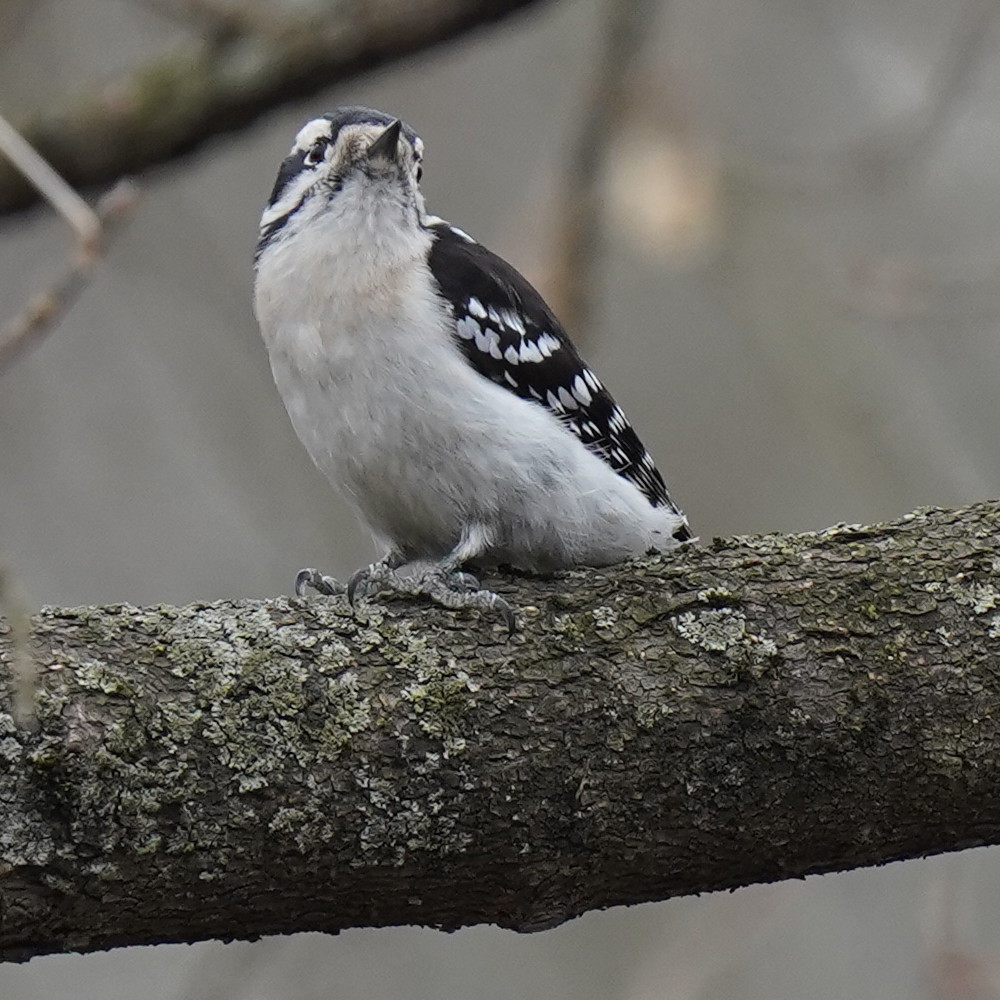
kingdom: Animalia
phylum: Chordata
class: Aves
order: Piciformes
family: Picidae
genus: Dryobates
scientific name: Dryobates pubescens
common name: Downy woodpecker
